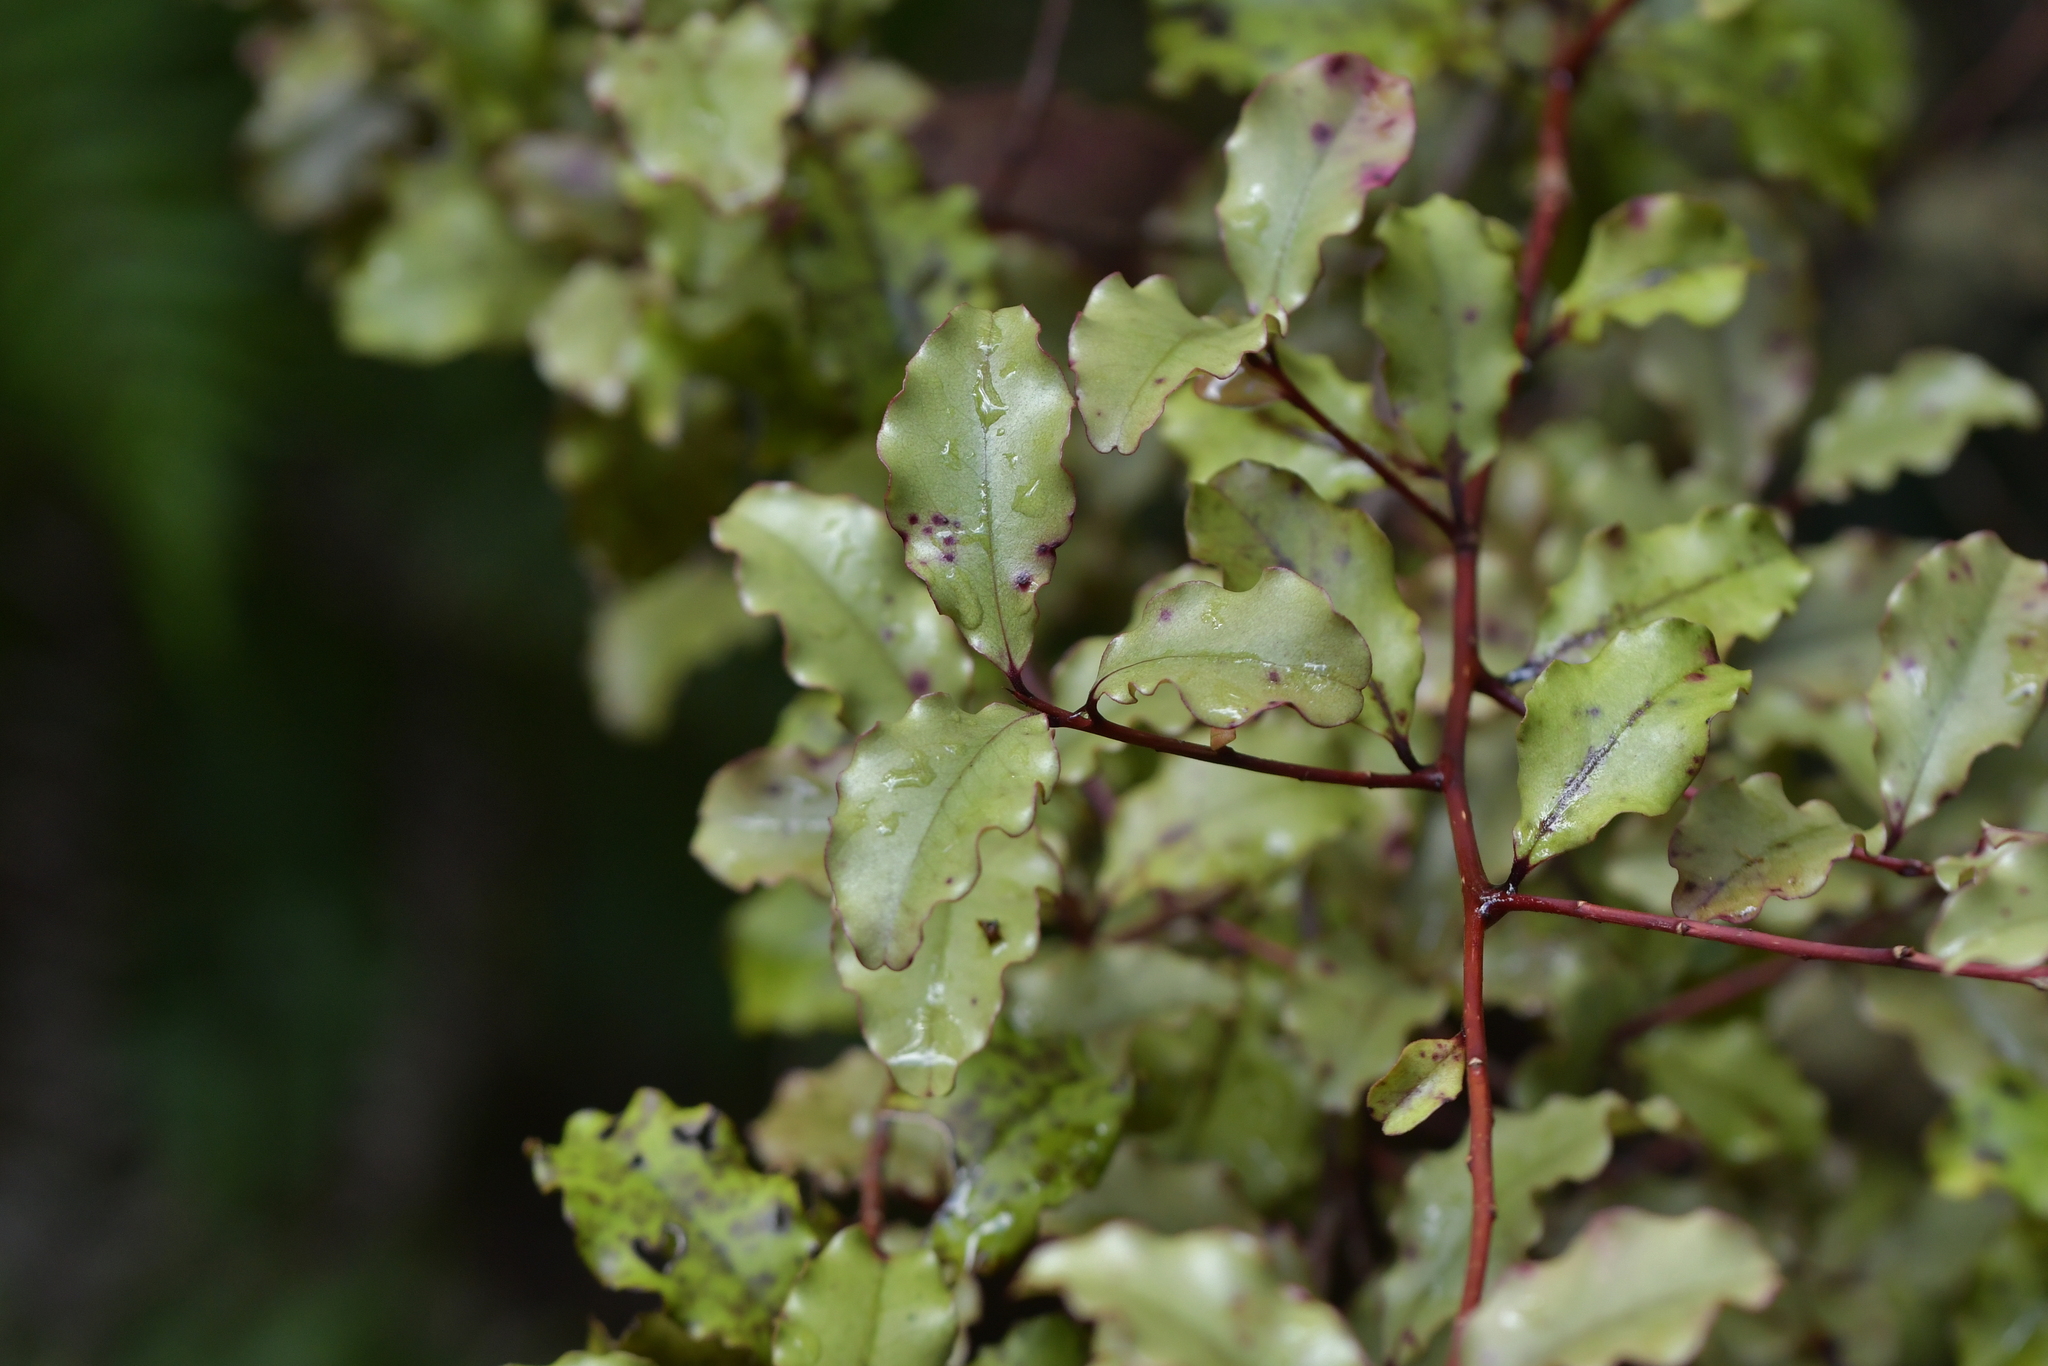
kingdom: Plantae
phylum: Tracheophyta
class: Magnoliopsida
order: Ericales
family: Primulaceae
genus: Myrsine
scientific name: Myrsine australis
